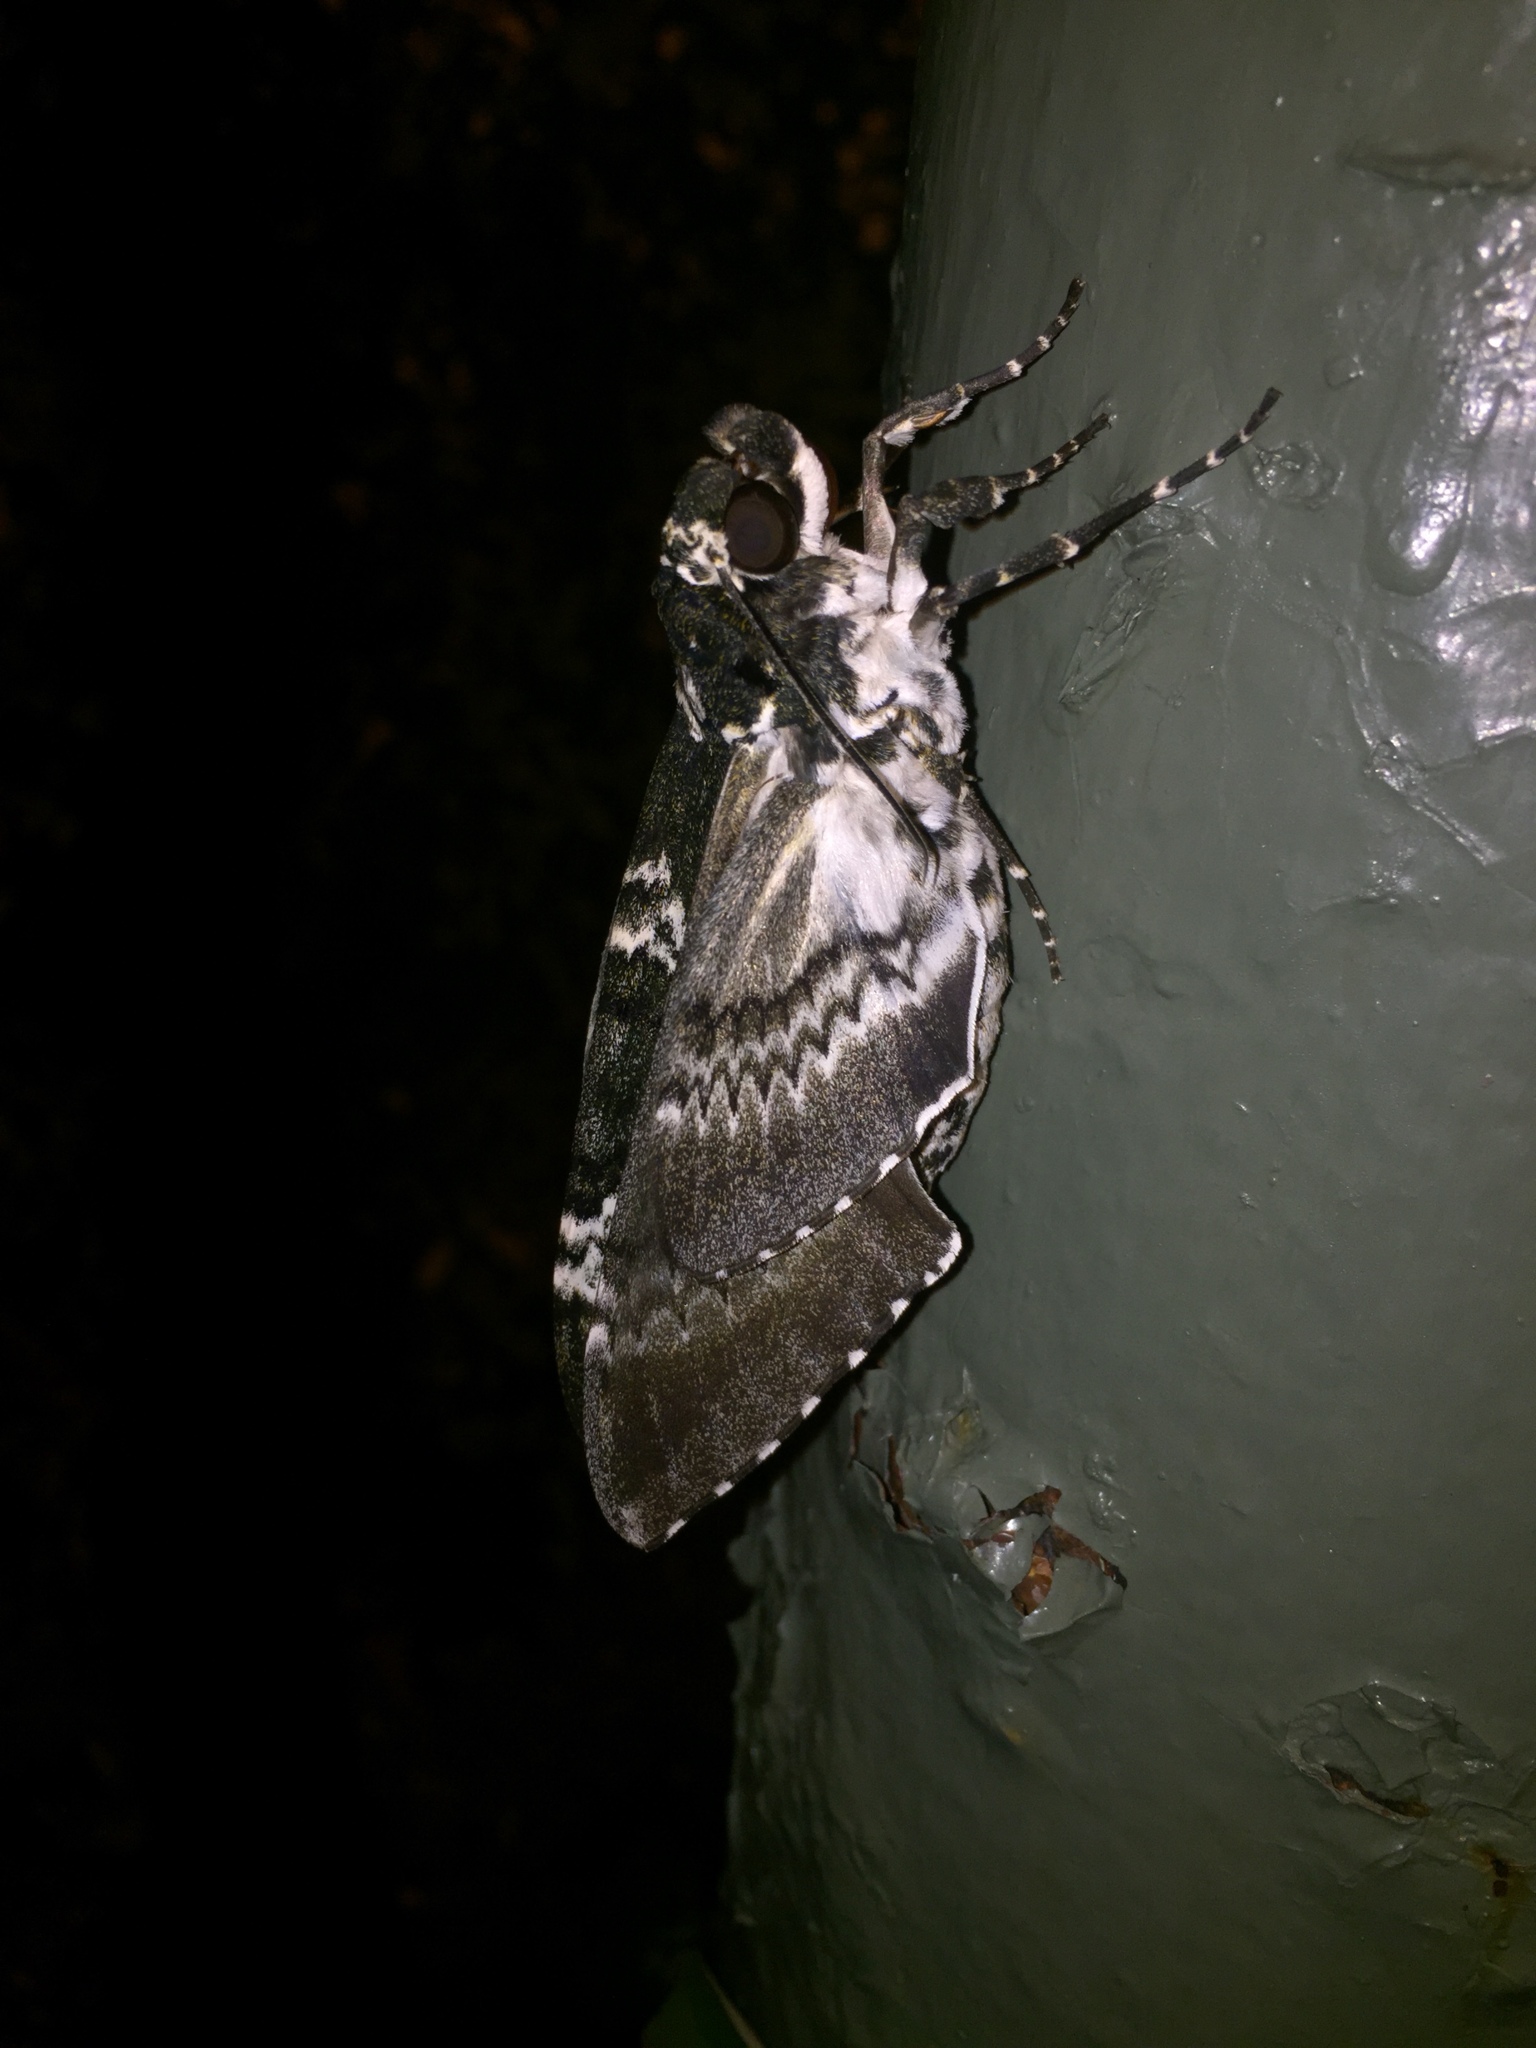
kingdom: Animalia
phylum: Arthropoda
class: Insecta
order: Lepidoptera
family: Sphingidae
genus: Manduca
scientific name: Manduca rustica
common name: Rustic sphinx
